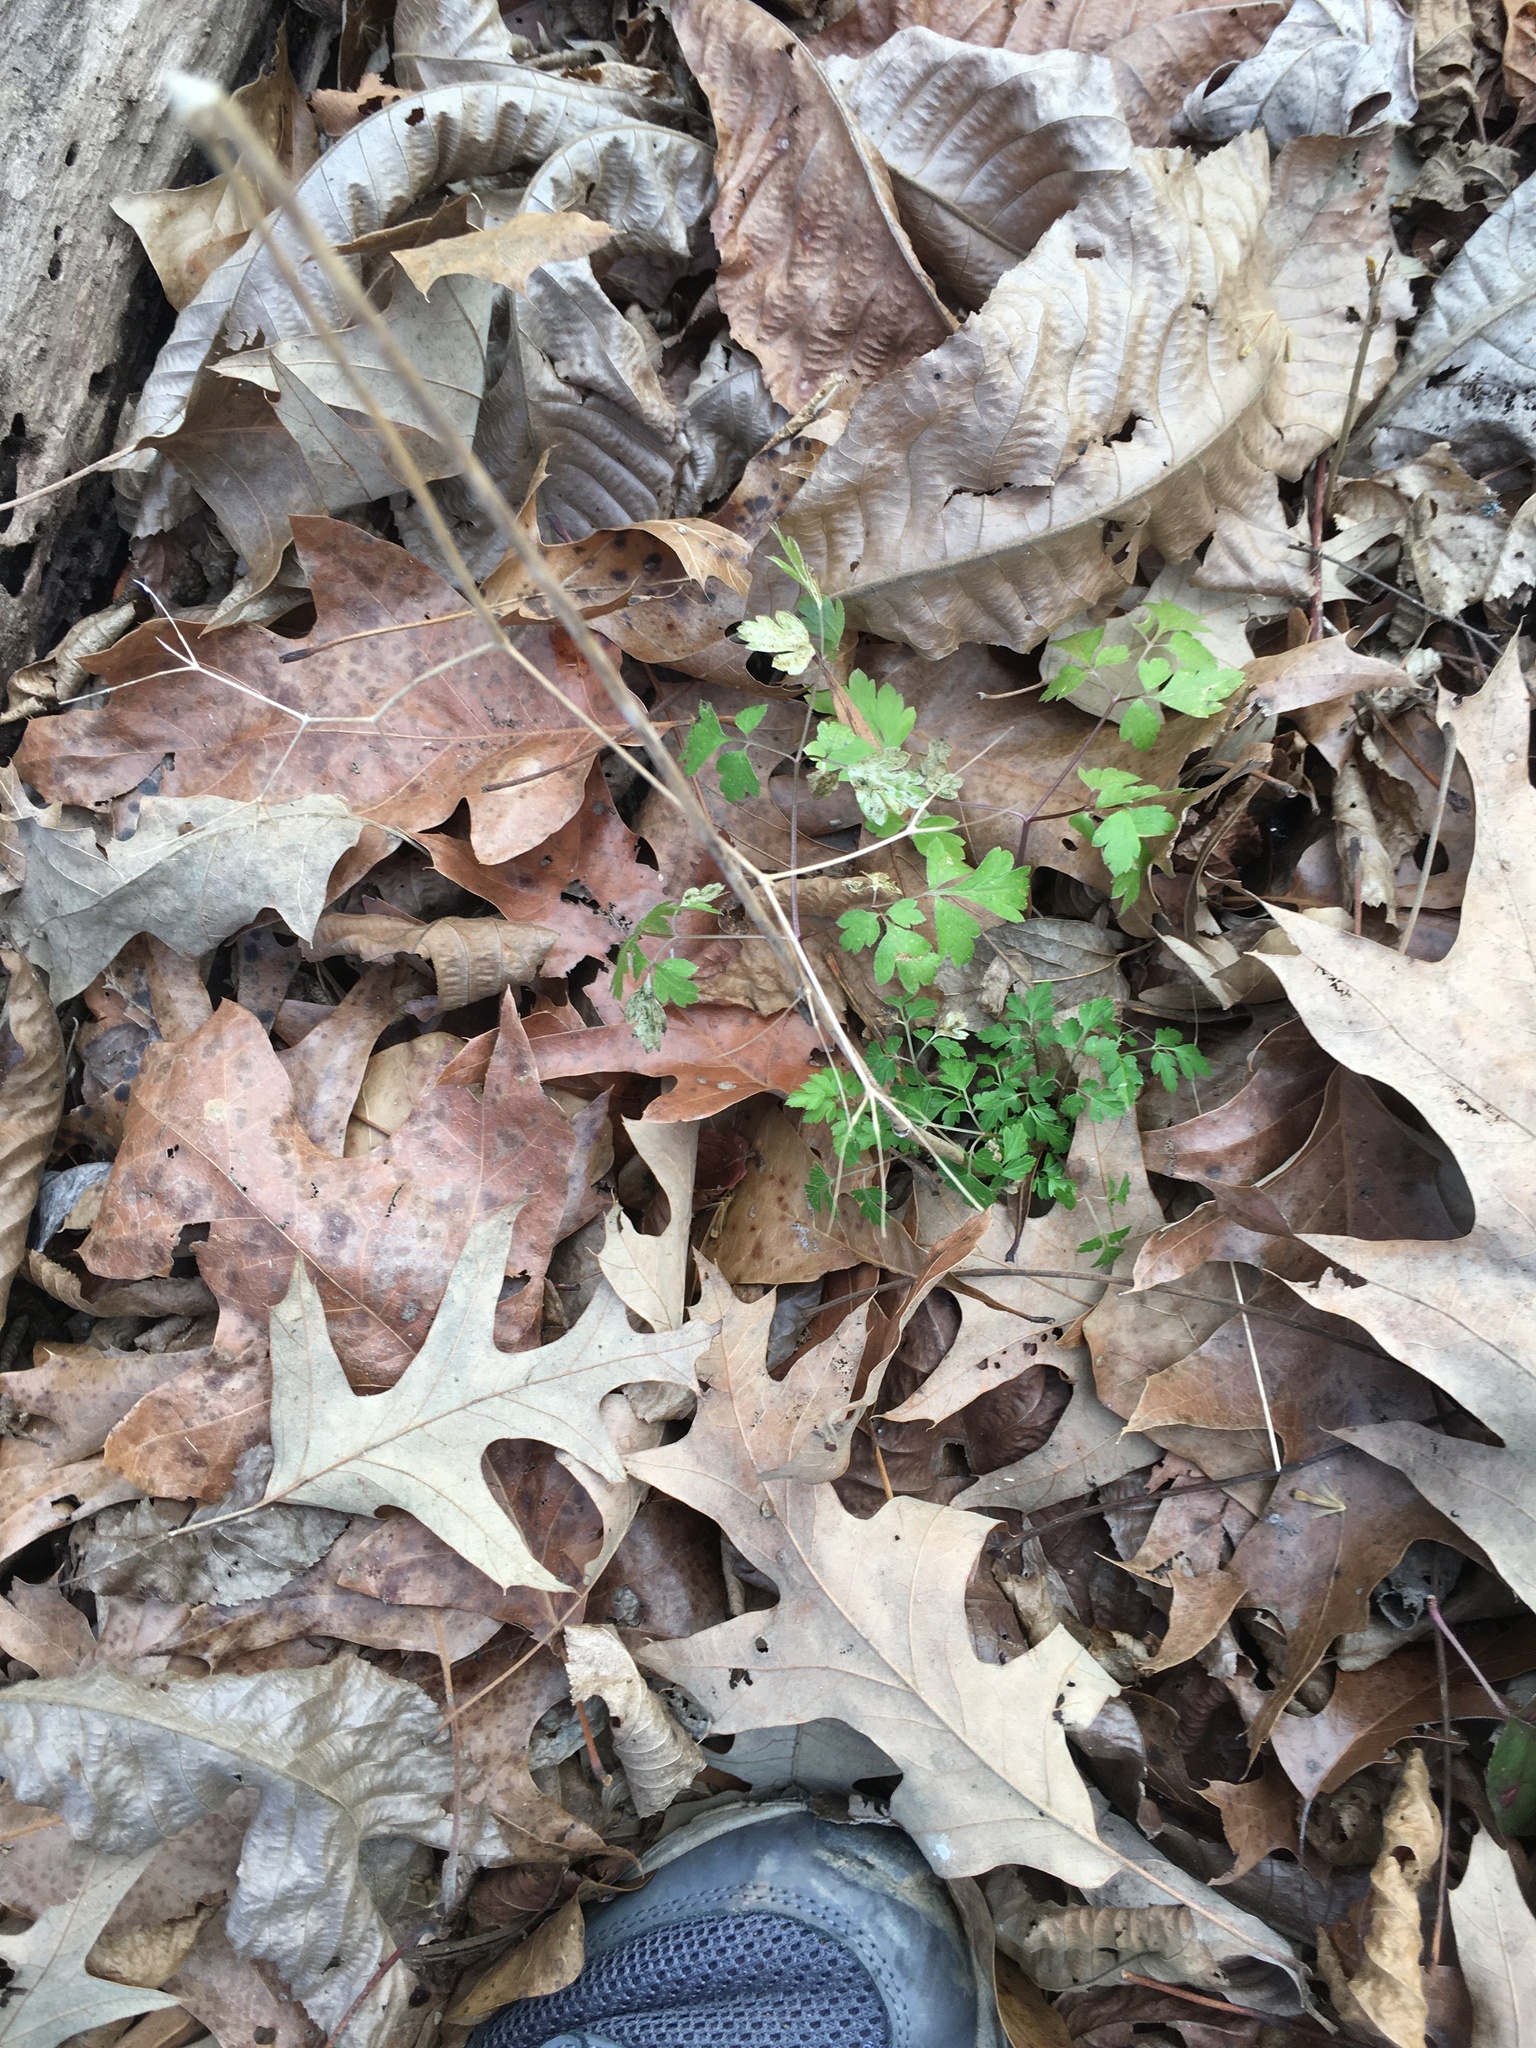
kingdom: Plantae
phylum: Tracheophyta
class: Magnoliopsida
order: Apiales
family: Apiaceae
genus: Osmorhiza
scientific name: Osmorhiza longistylis
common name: Smooth sweet cicely
